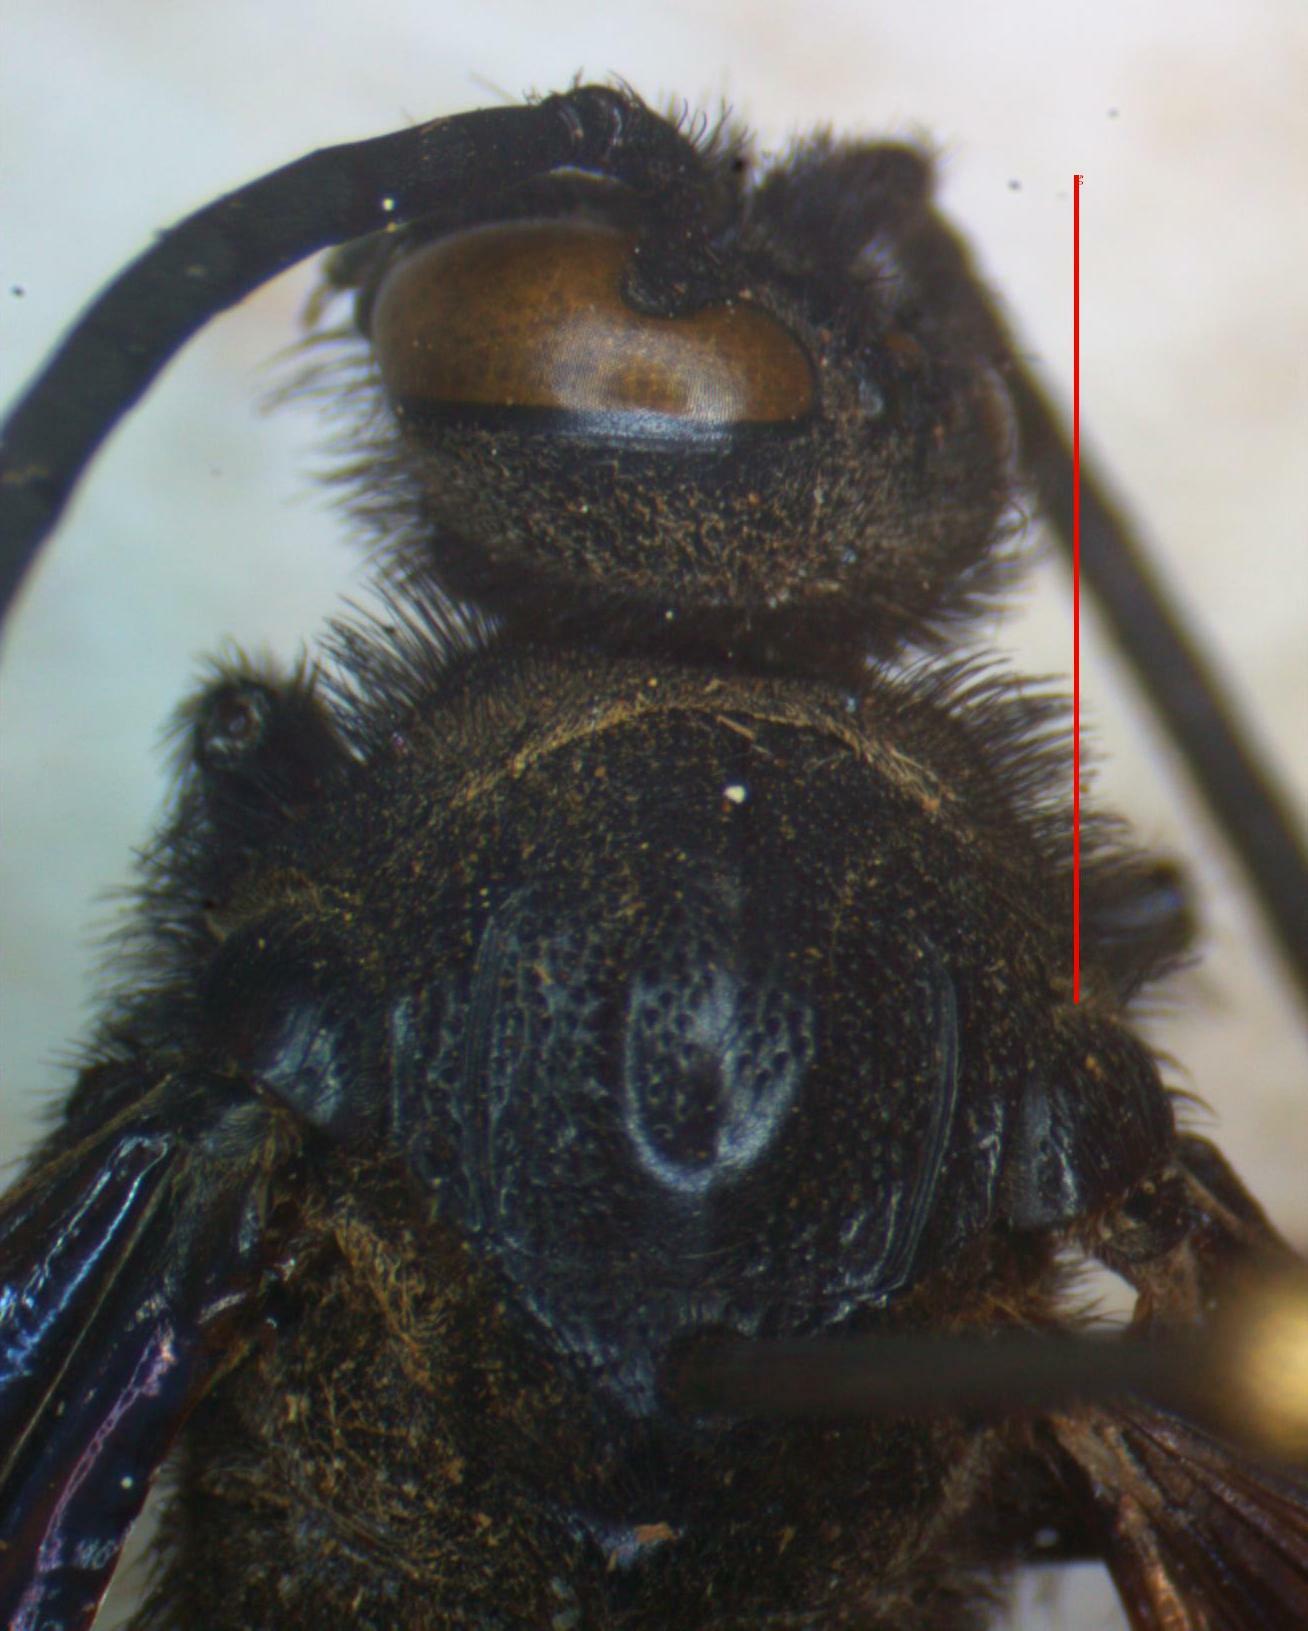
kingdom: Animalia
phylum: Arthropoda
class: Insecta
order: Hymenoptera
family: Scoliidae
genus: Pygodasis
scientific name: Pygodasis ephippium
